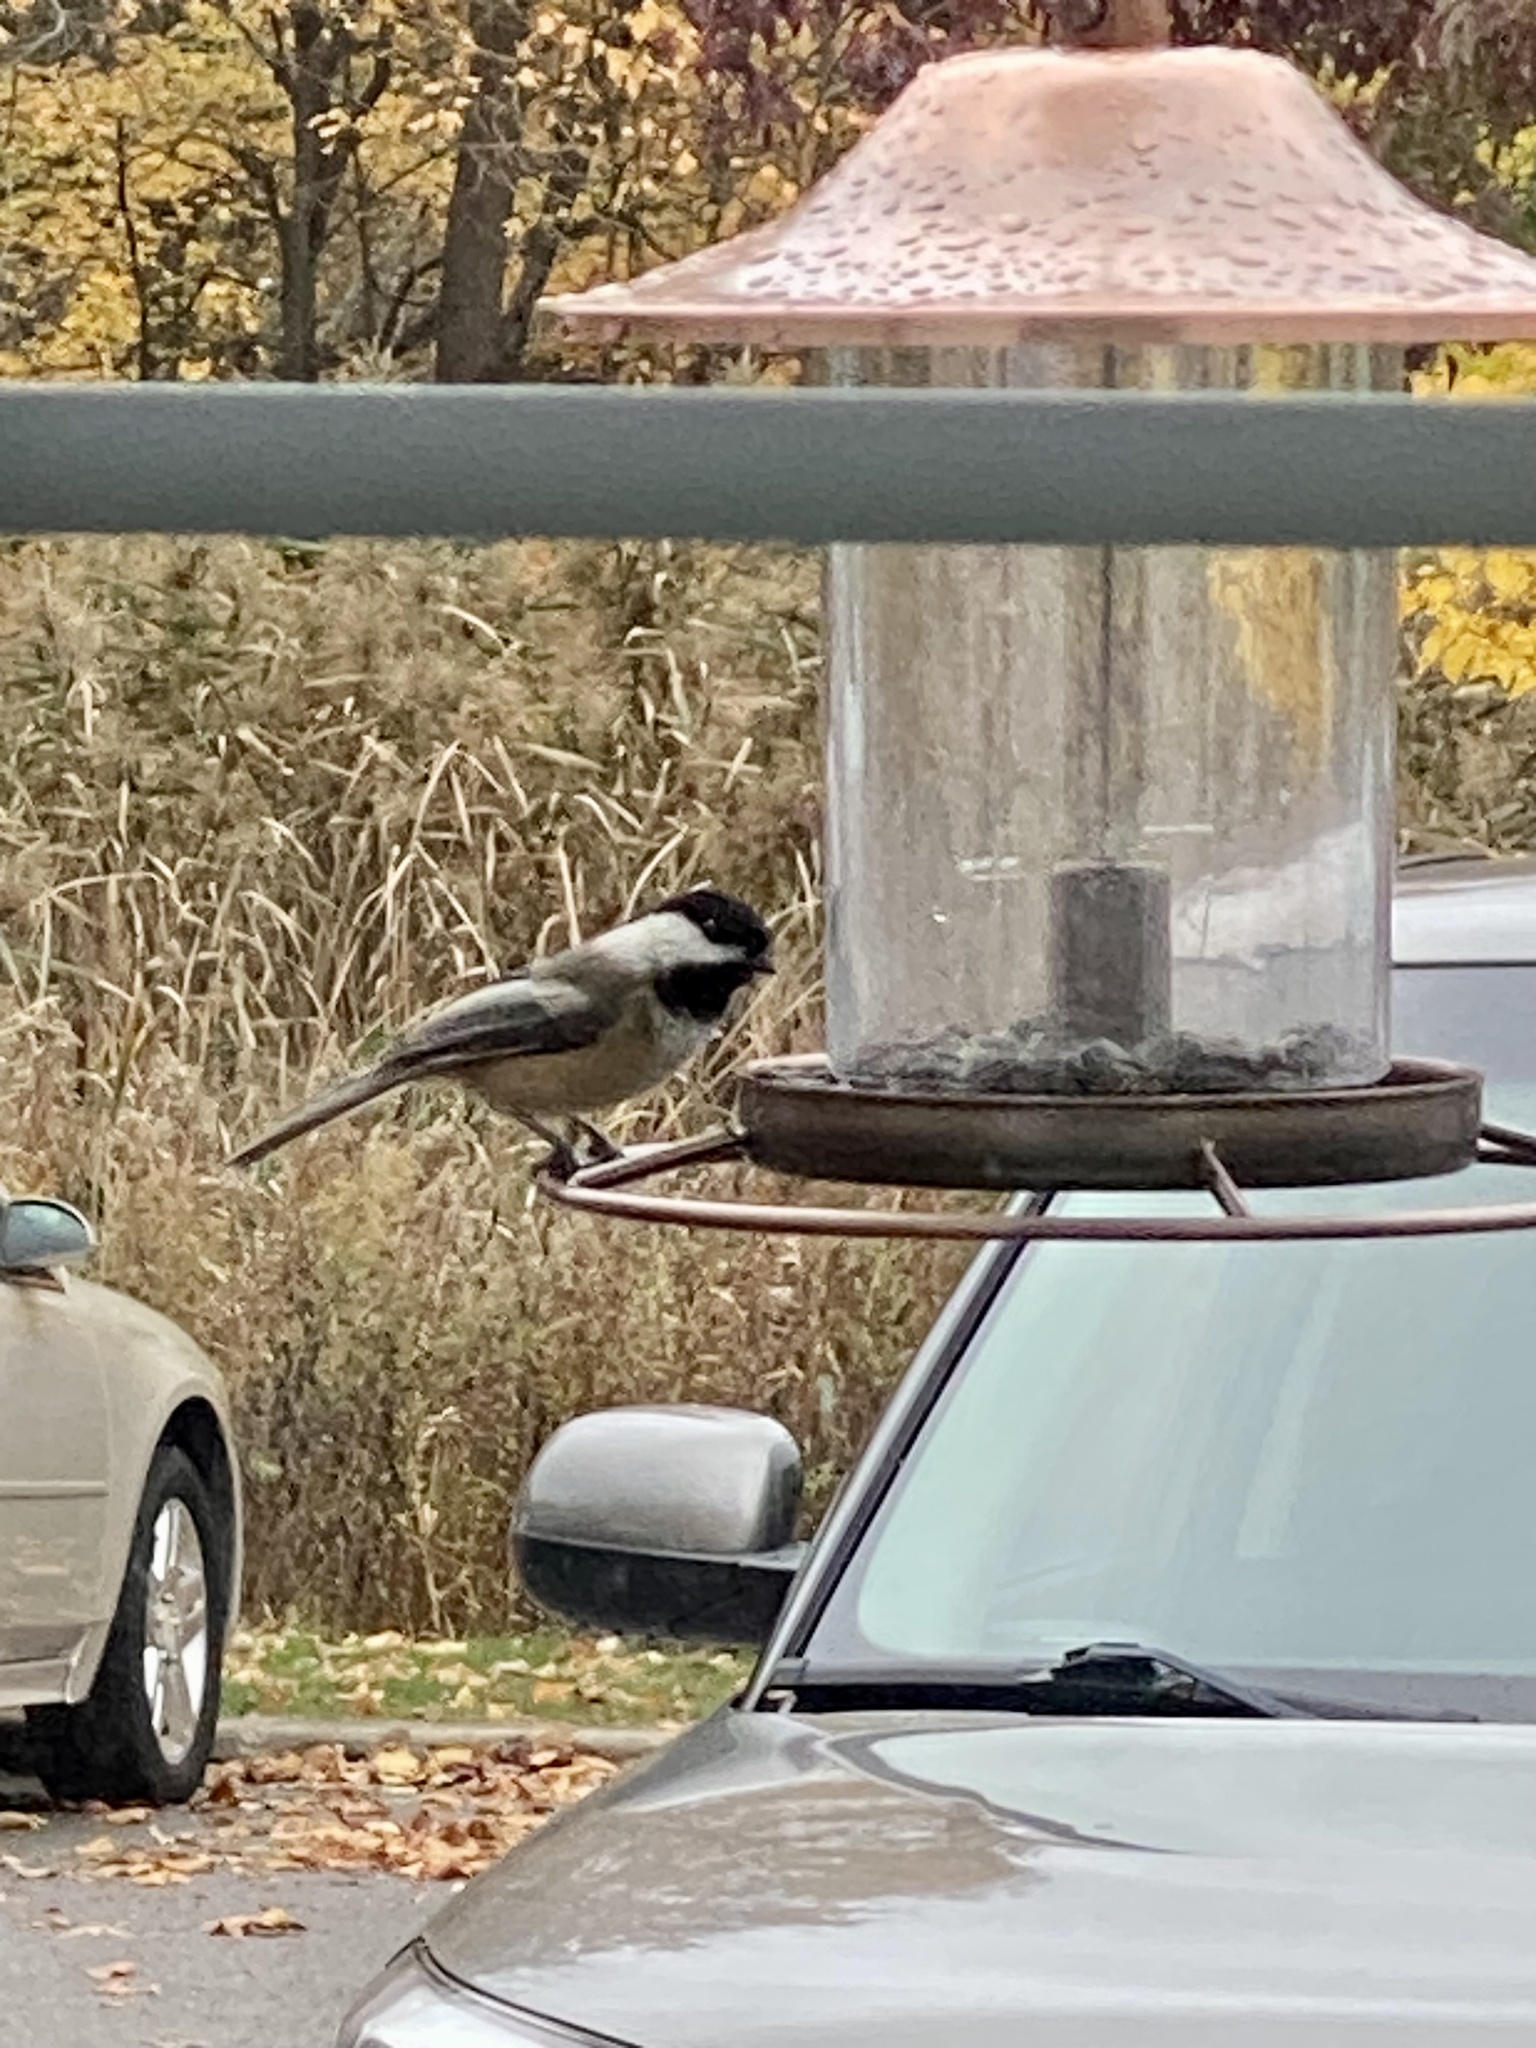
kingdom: Animalia
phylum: Chordata
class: Aves
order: Passeriformes
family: Paridae
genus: Poecile
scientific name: Poecile atricapillus
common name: Black-capped chickadee
